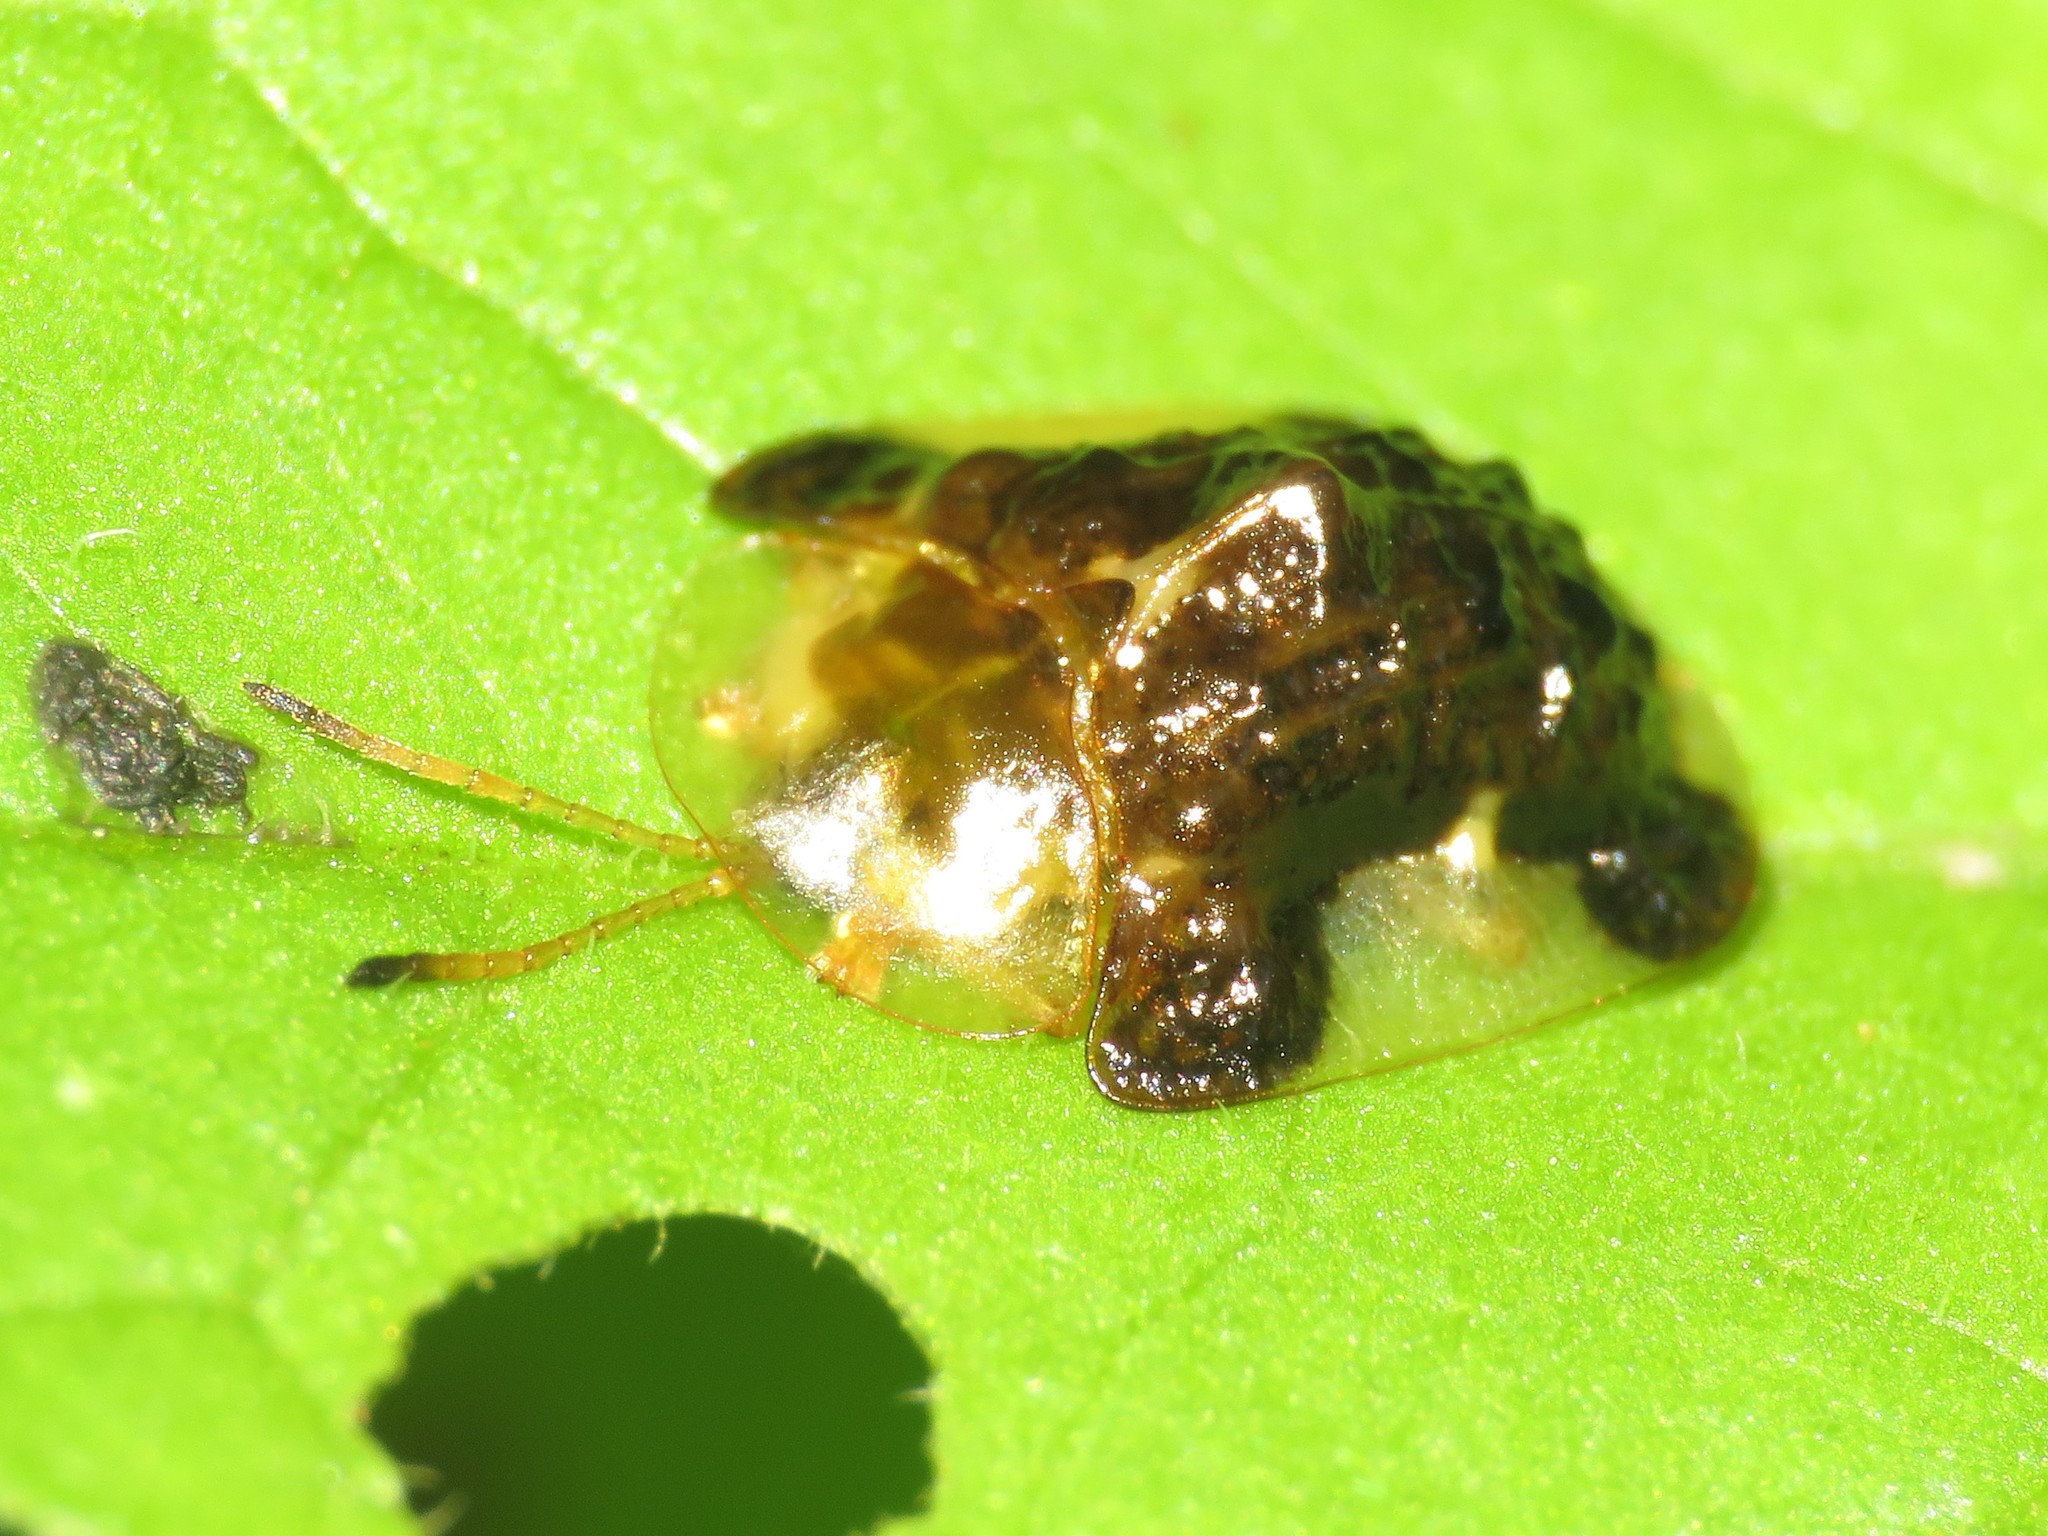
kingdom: Animalia
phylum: Arthropoda
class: Insecta
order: Coleoptera
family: Chrysomelidae
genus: Helocassis
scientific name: Helocassis clavata
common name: Clavate tortoise beetle
